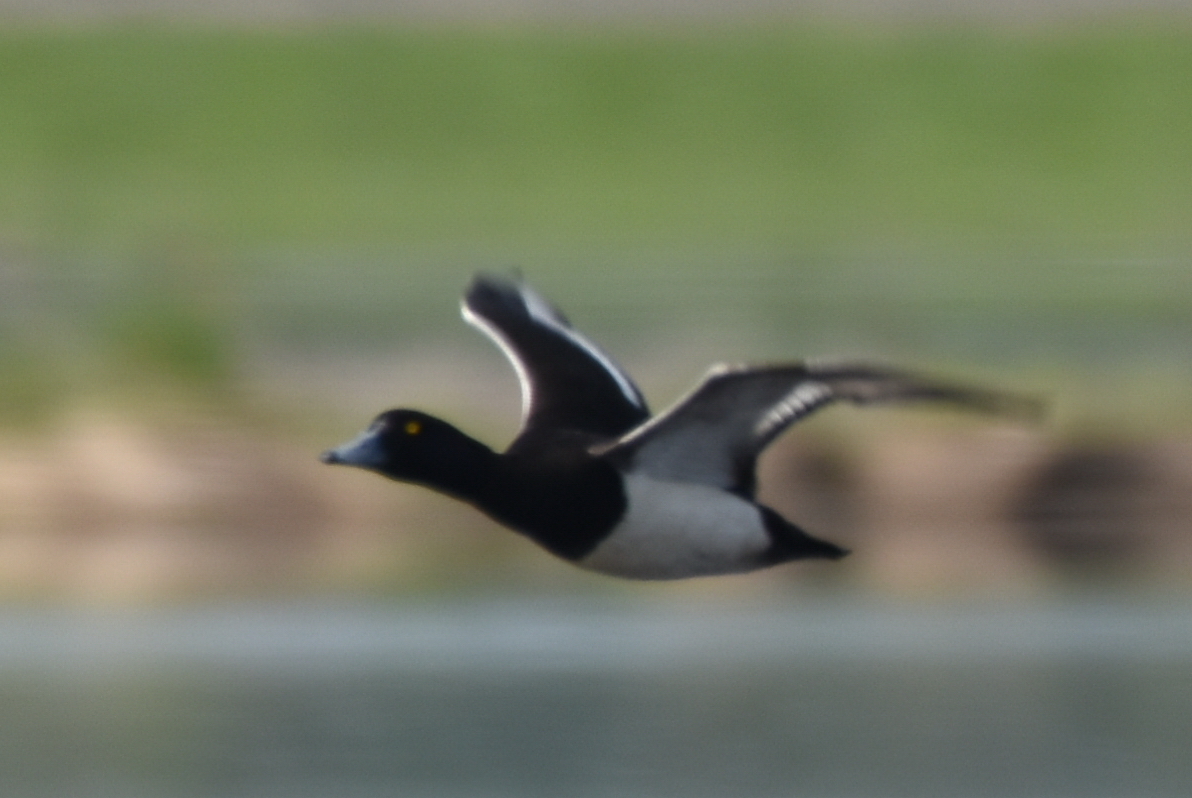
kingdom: Animalia
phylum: Chordata
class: Aves
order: Anseriformes
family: Anatidae
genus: Aythya
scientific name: Aythya fuligula
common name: Tufted duck
